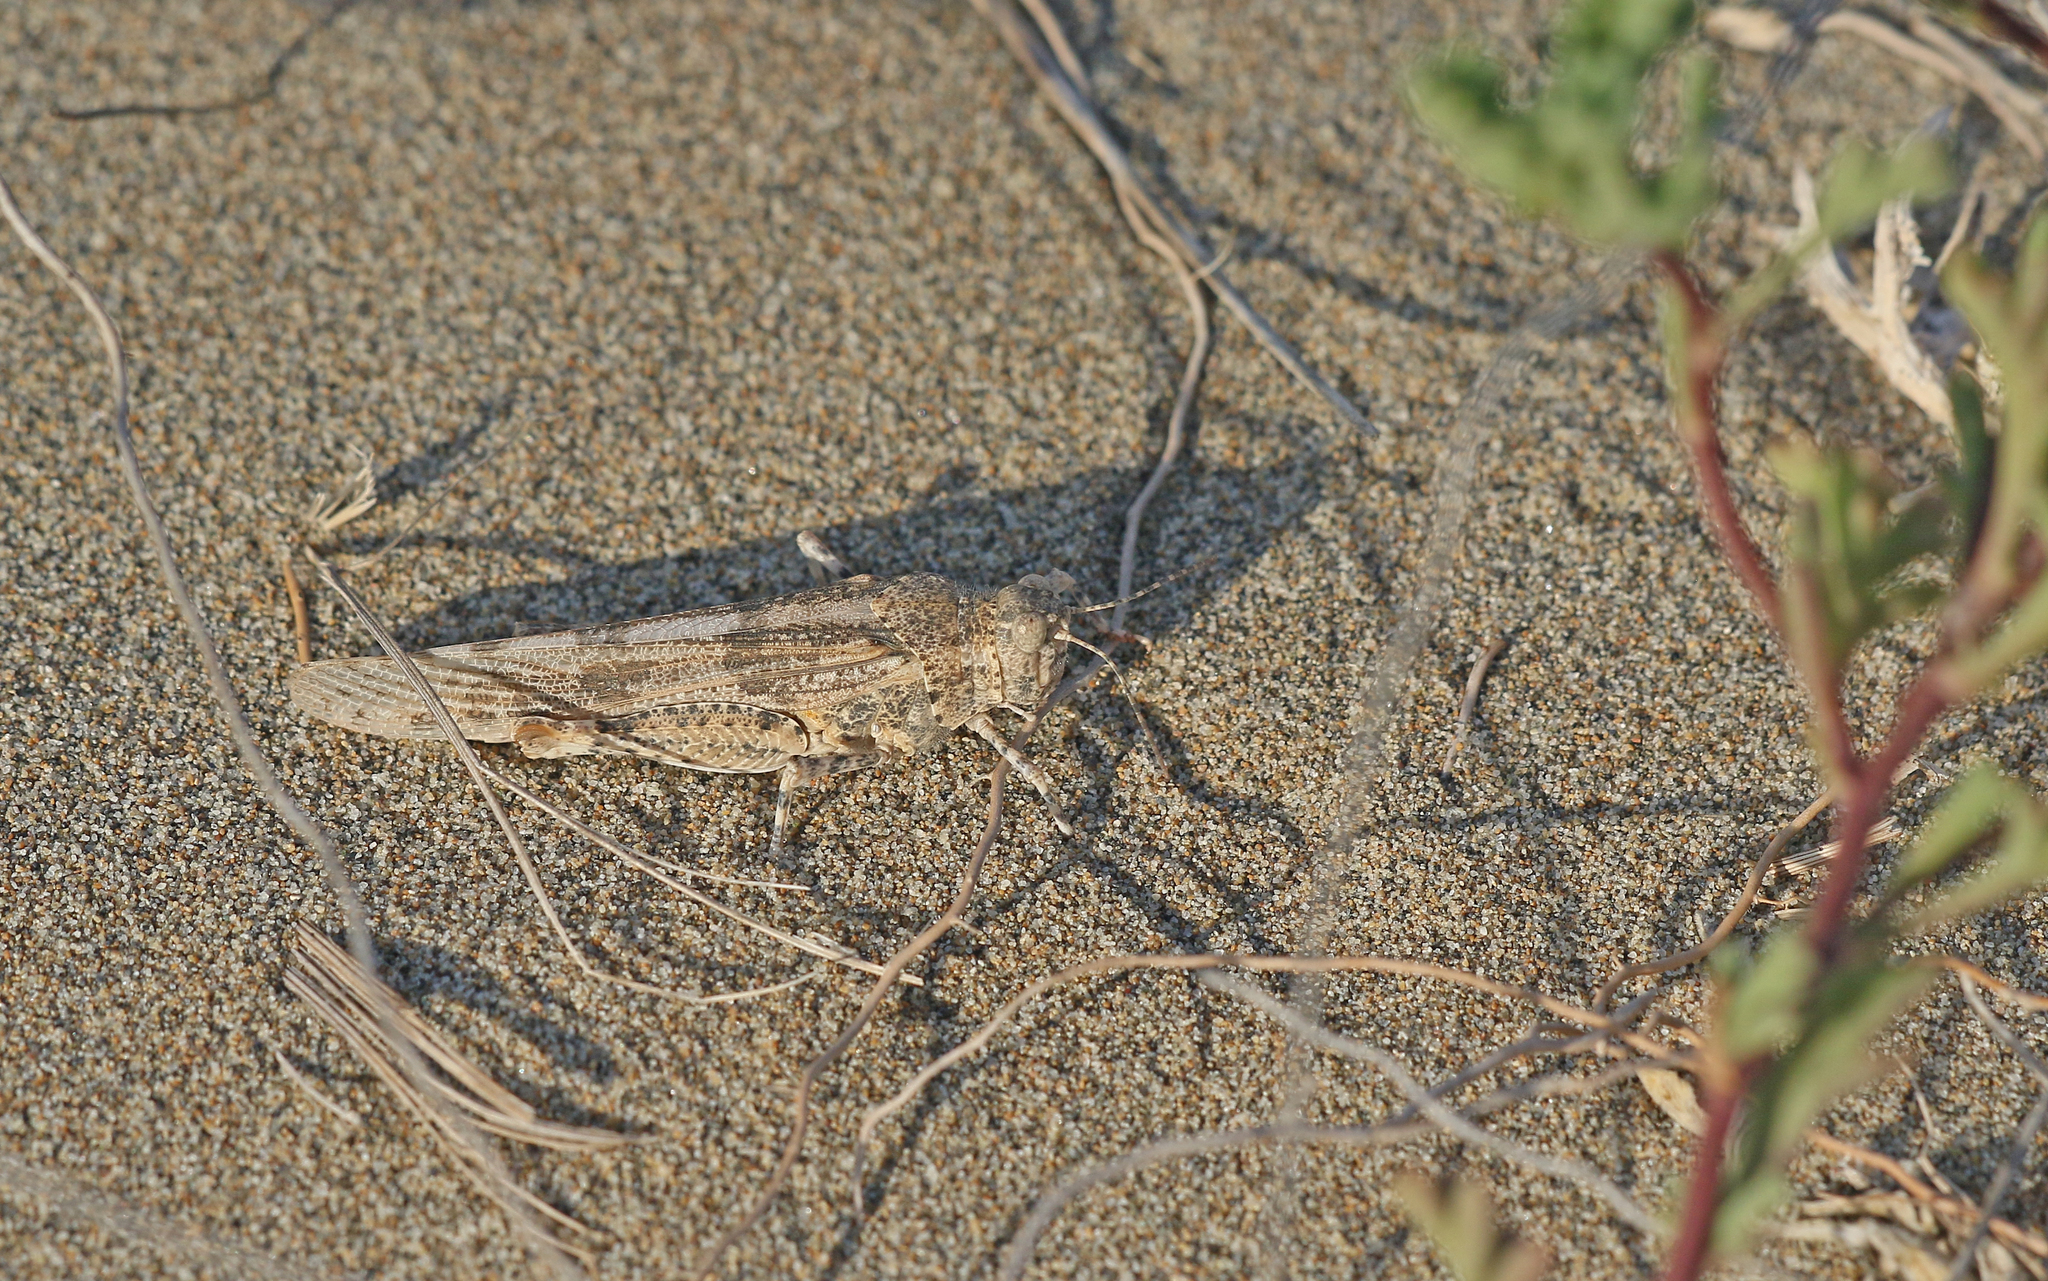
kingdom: Animalia
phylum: Arthropoda
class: Insecta
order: Orthoptera
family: Acrididae
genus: Sphingonotus
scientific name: Sphingonotus caerulans
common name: Blue-winged locust
